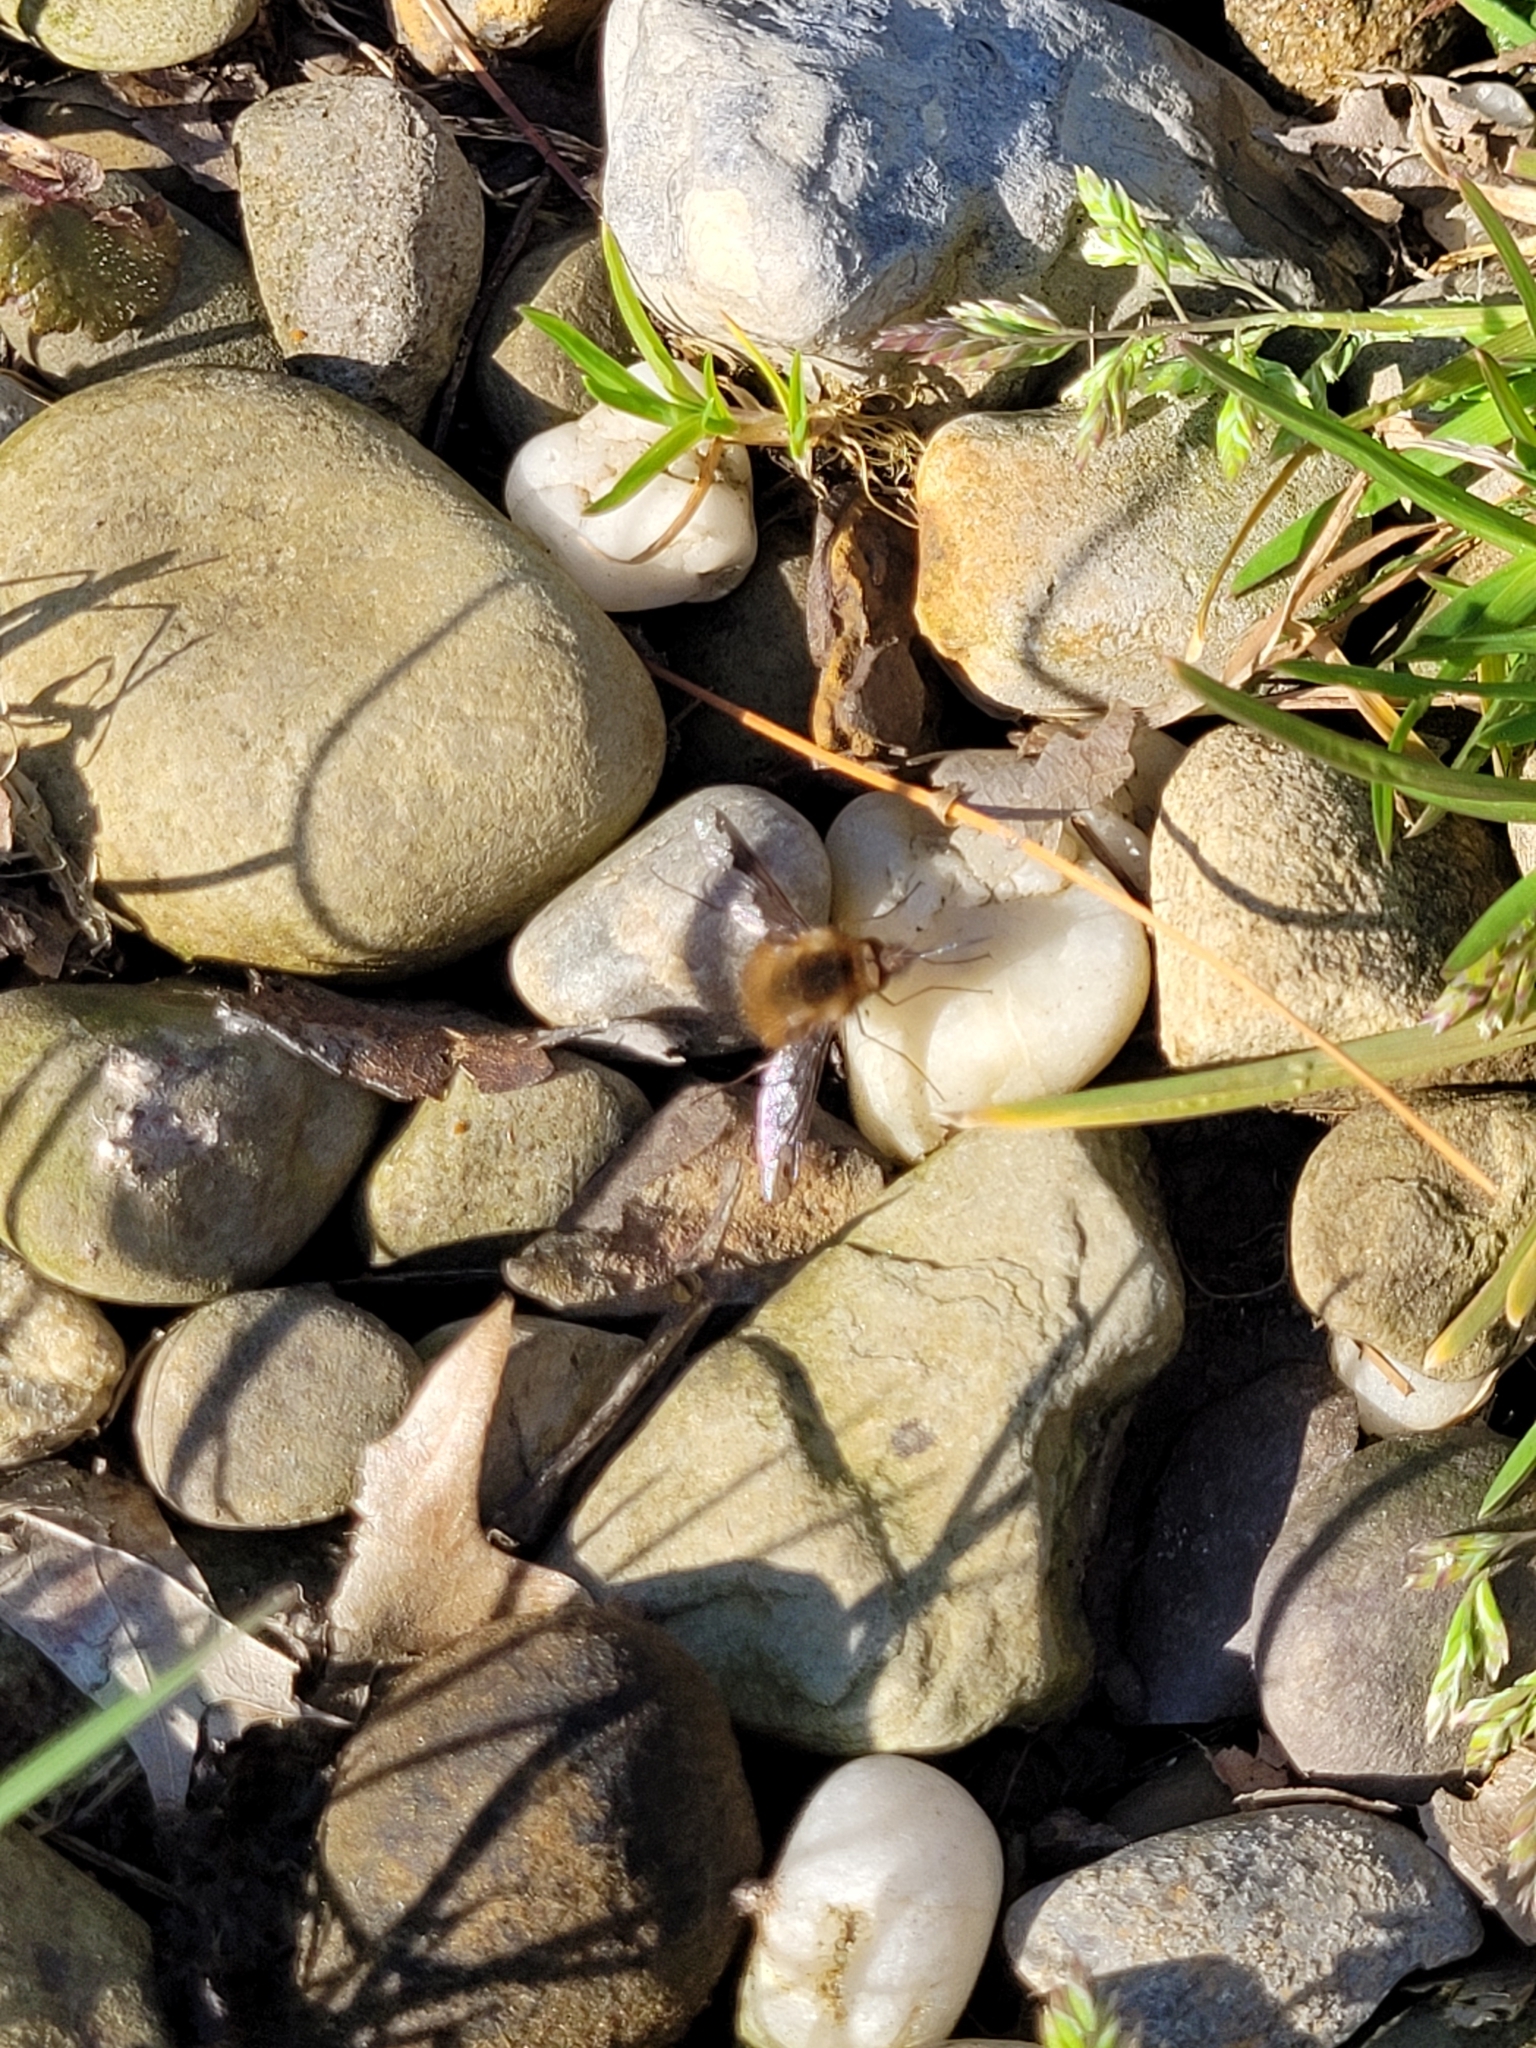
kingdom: Animalia
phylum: Arthropoda
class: Insecta
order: Diptera
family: Bombyliidae
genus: Bombylius
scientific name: Bombylius major
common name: Bee fly
